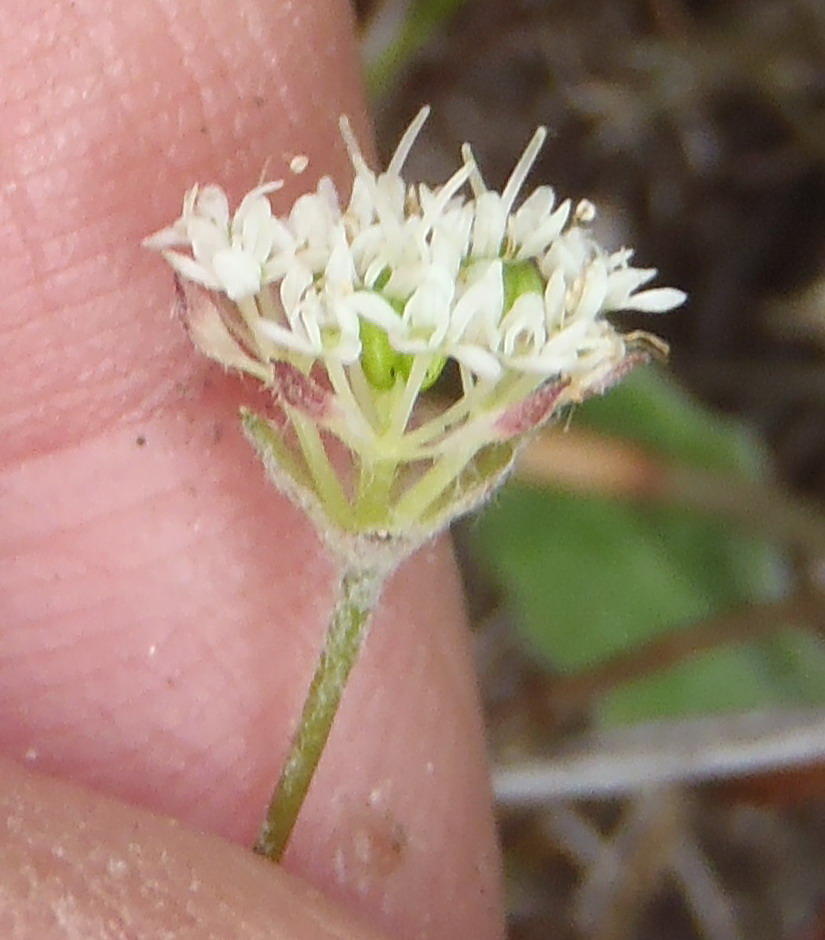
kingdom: Plantae
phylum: Tracheophyta
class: Magnoliopsida
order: Apiales
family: Apiaceae
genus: Hermas
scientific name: Hermas capitata
